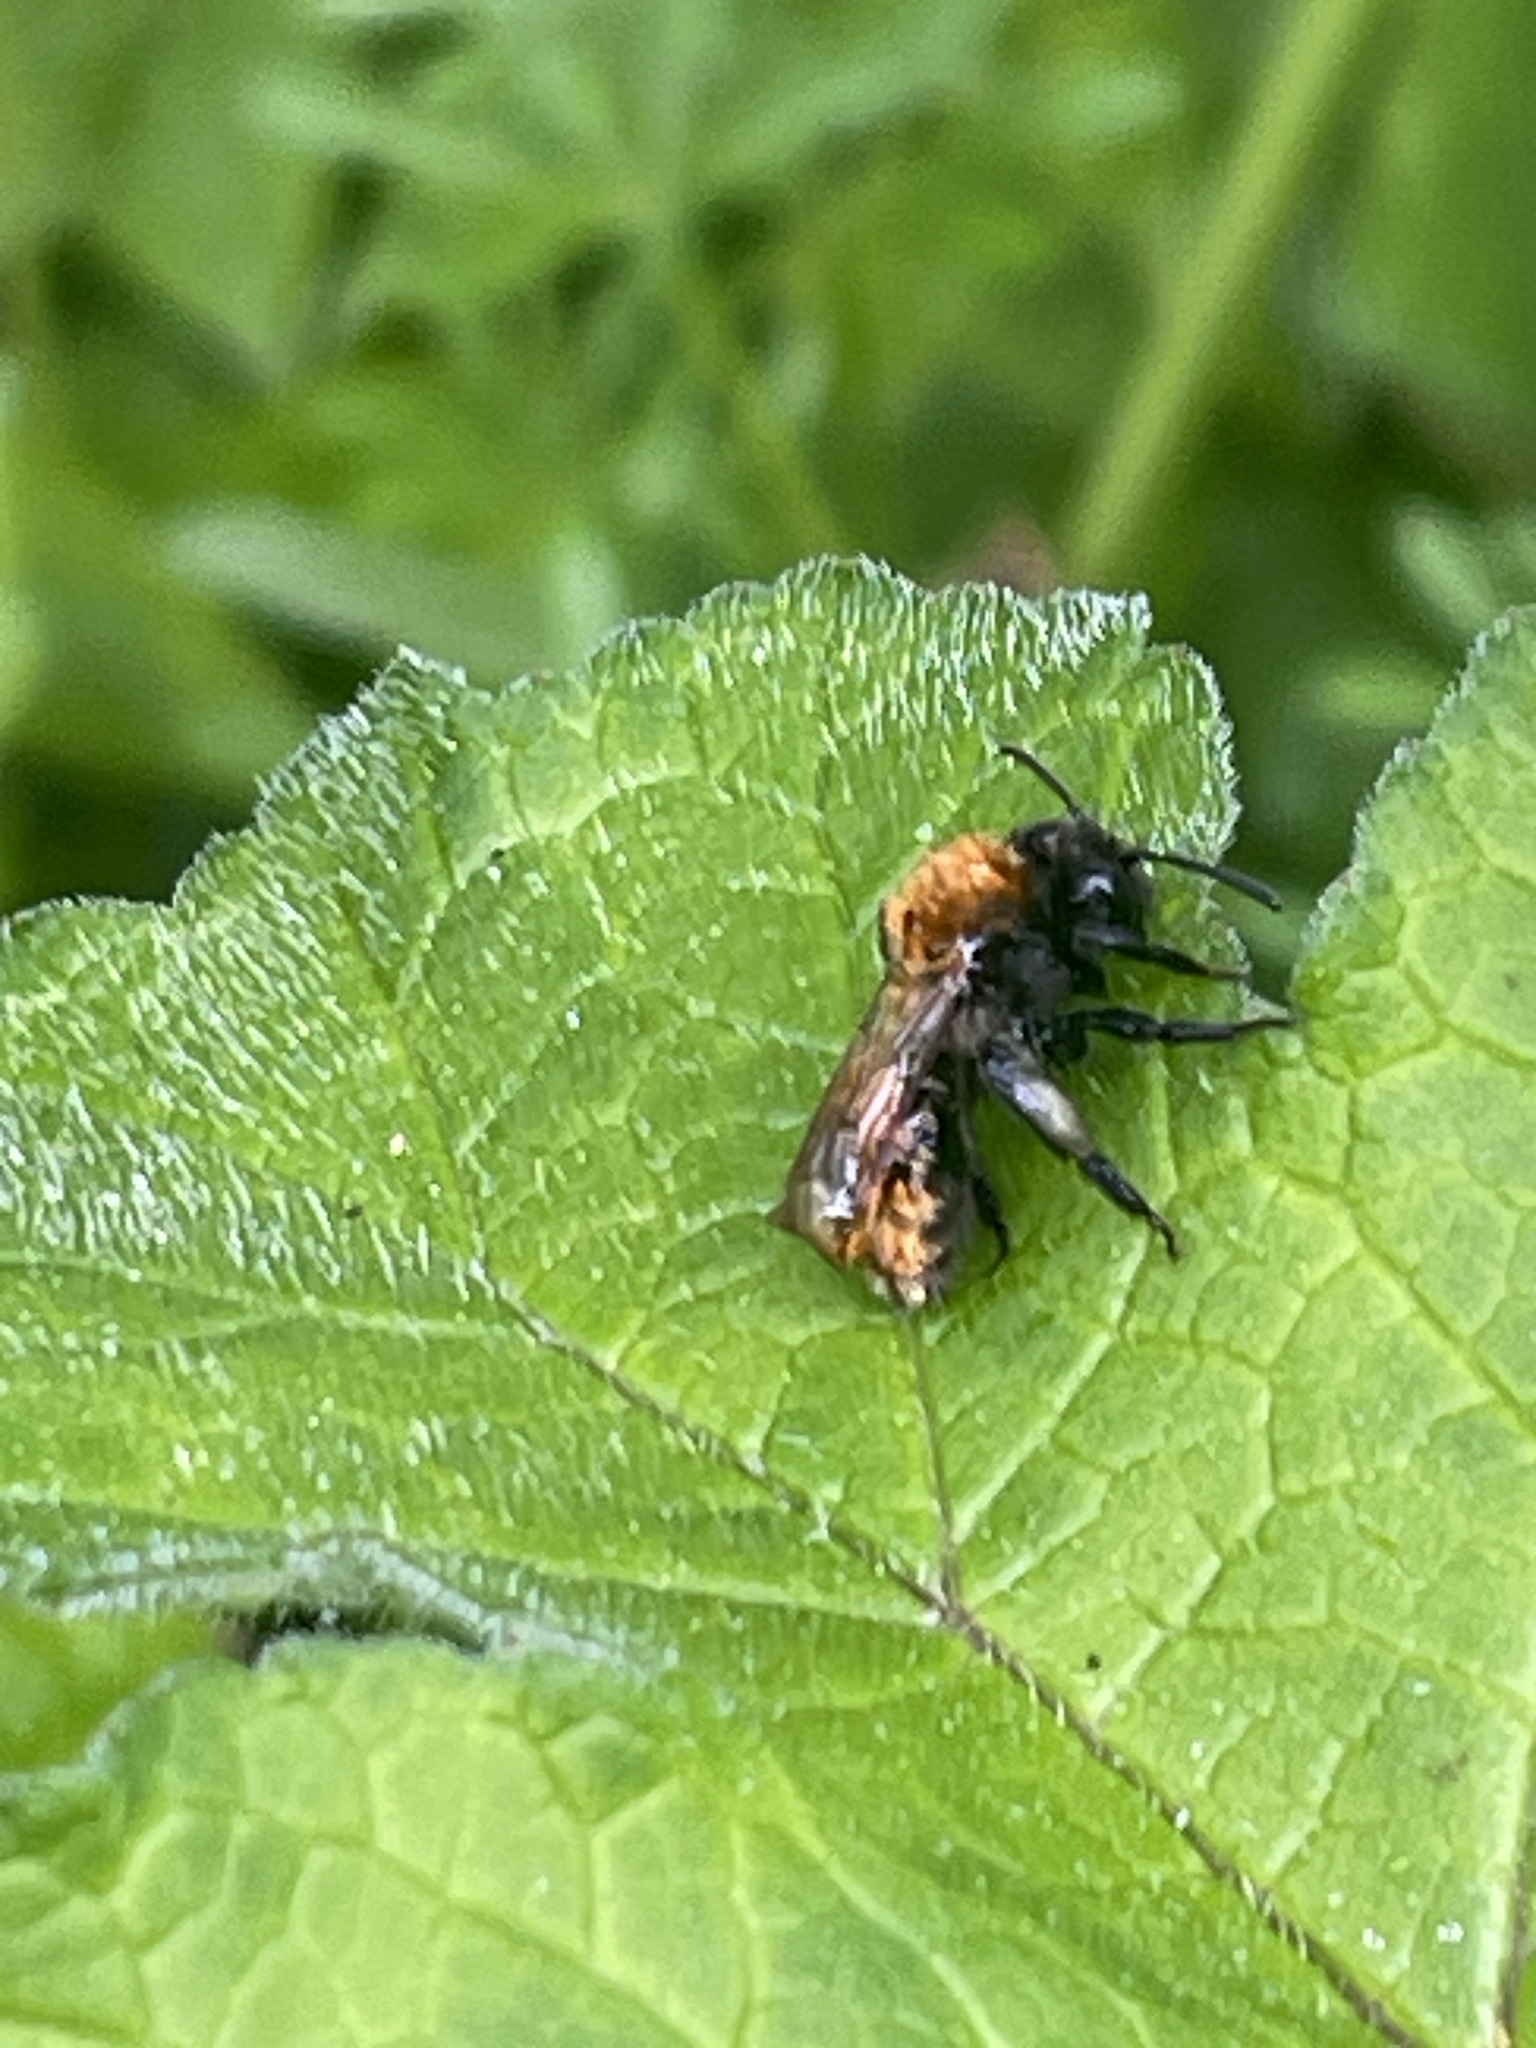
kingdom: Animalia
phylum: Arthropoda
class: Insecta
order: Hymenoptera
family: Andrenidae
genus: Andrena
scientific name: Andrena fulva
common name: Tawny mining bee
